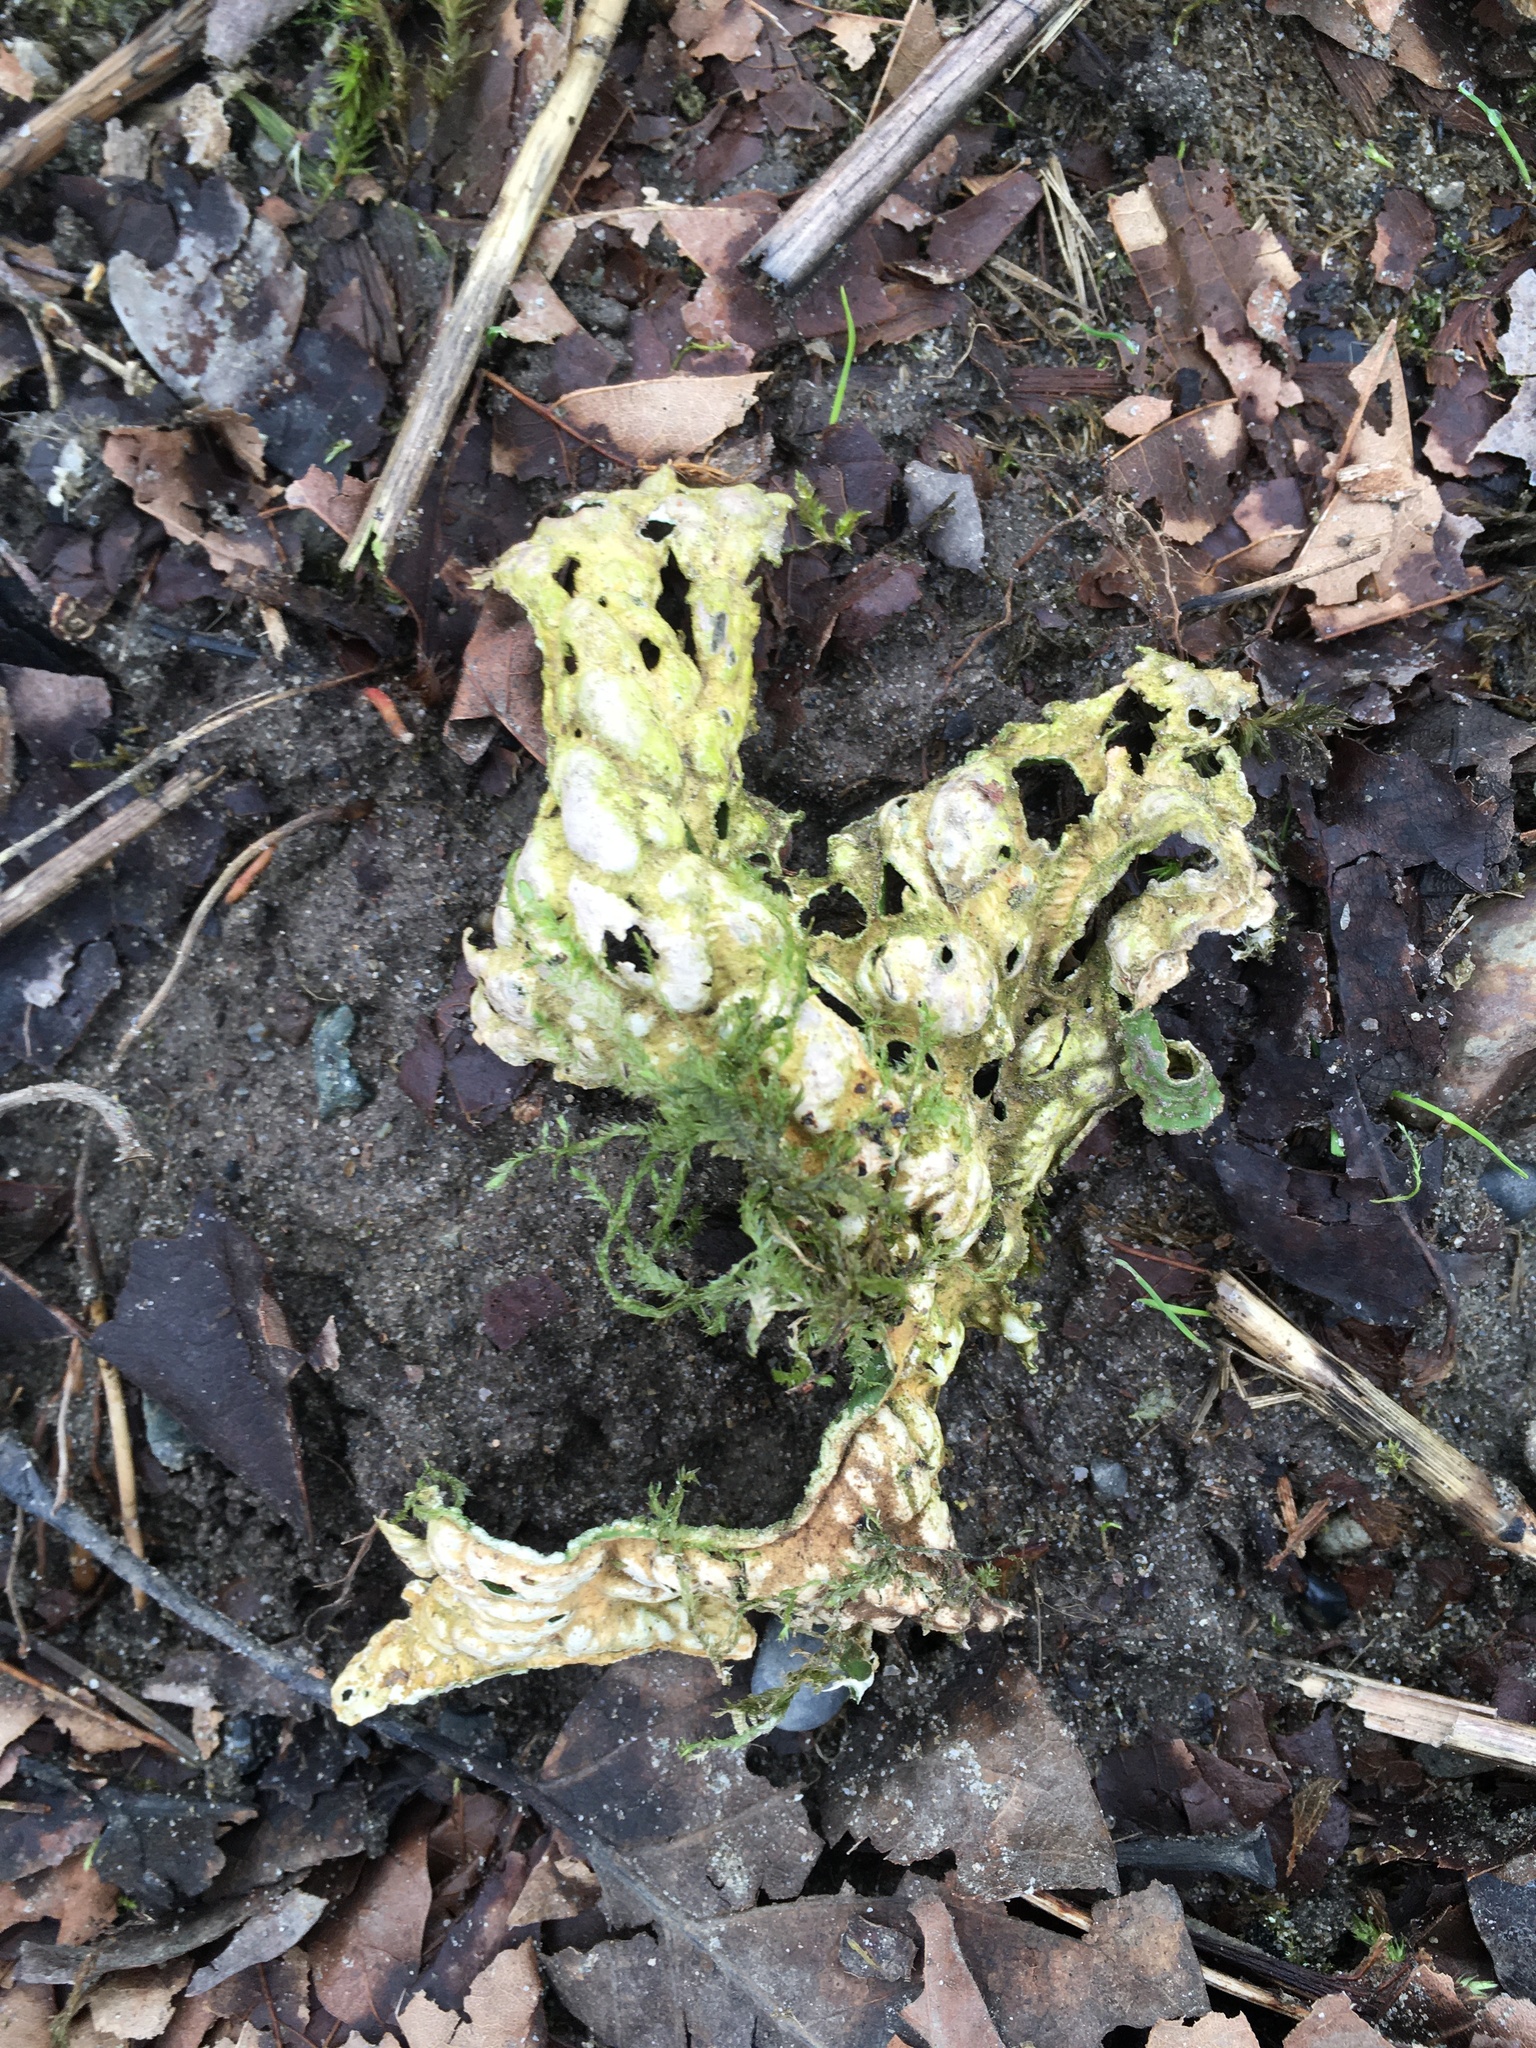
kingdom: Fungi
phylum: Ascomycota
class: Lecanoromycetes
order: Peltigerales
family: Lobariaceae
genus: Lobaria
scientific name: Lobaria pulmonaria
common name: Lungwort
